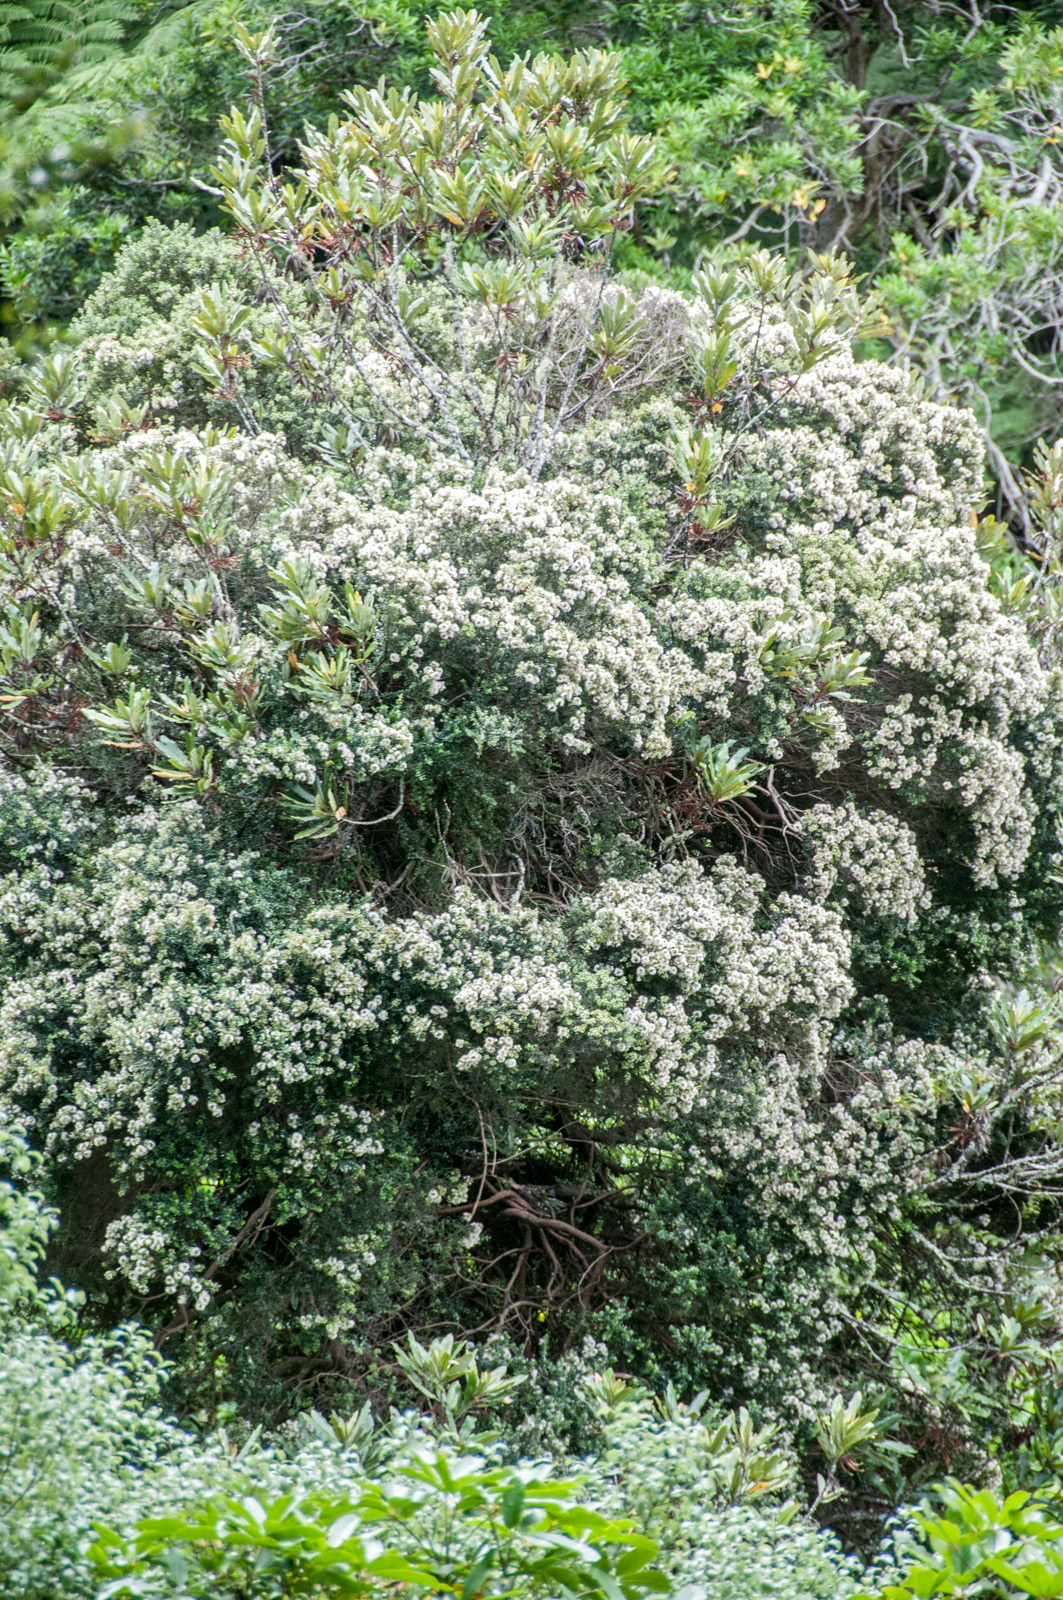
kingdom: Plantae
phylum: Tracheophyta
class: Magnoliopsida
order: Myrtales
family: Myrtaceae
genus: Metrosideros
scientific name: Metrosideros perforata
